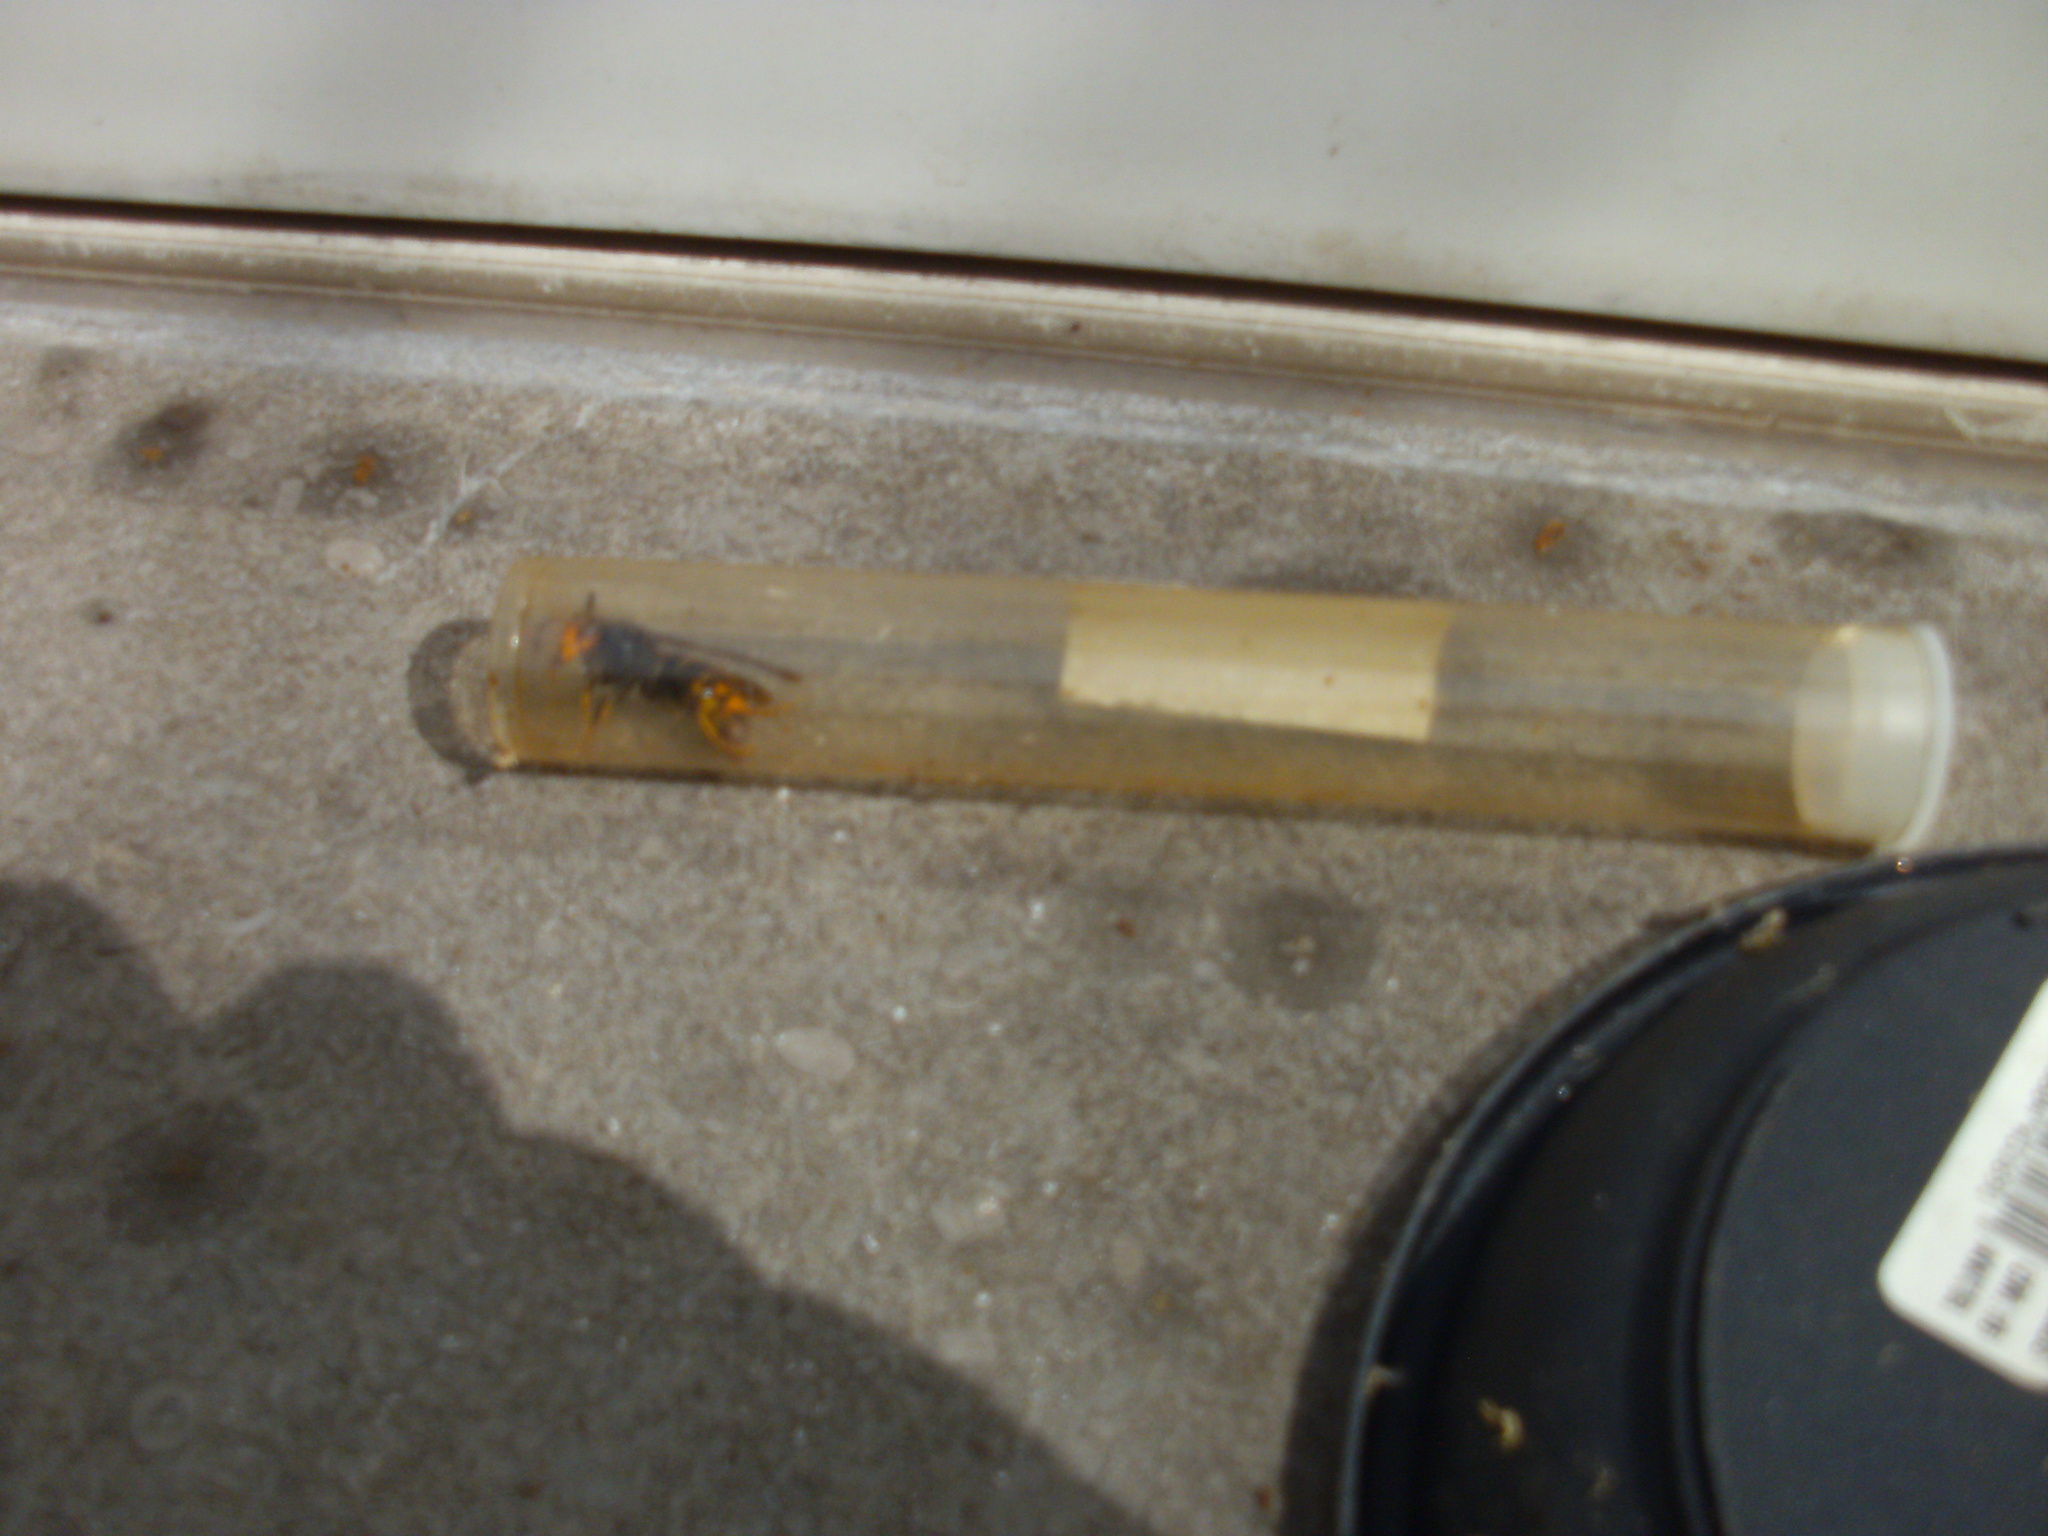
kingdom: Animalia
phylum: Arthropoda
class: Insecta
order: Hymenoptera
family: Vespidae
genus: Vespa
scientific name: Vespa velutina
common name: Asian hornet
